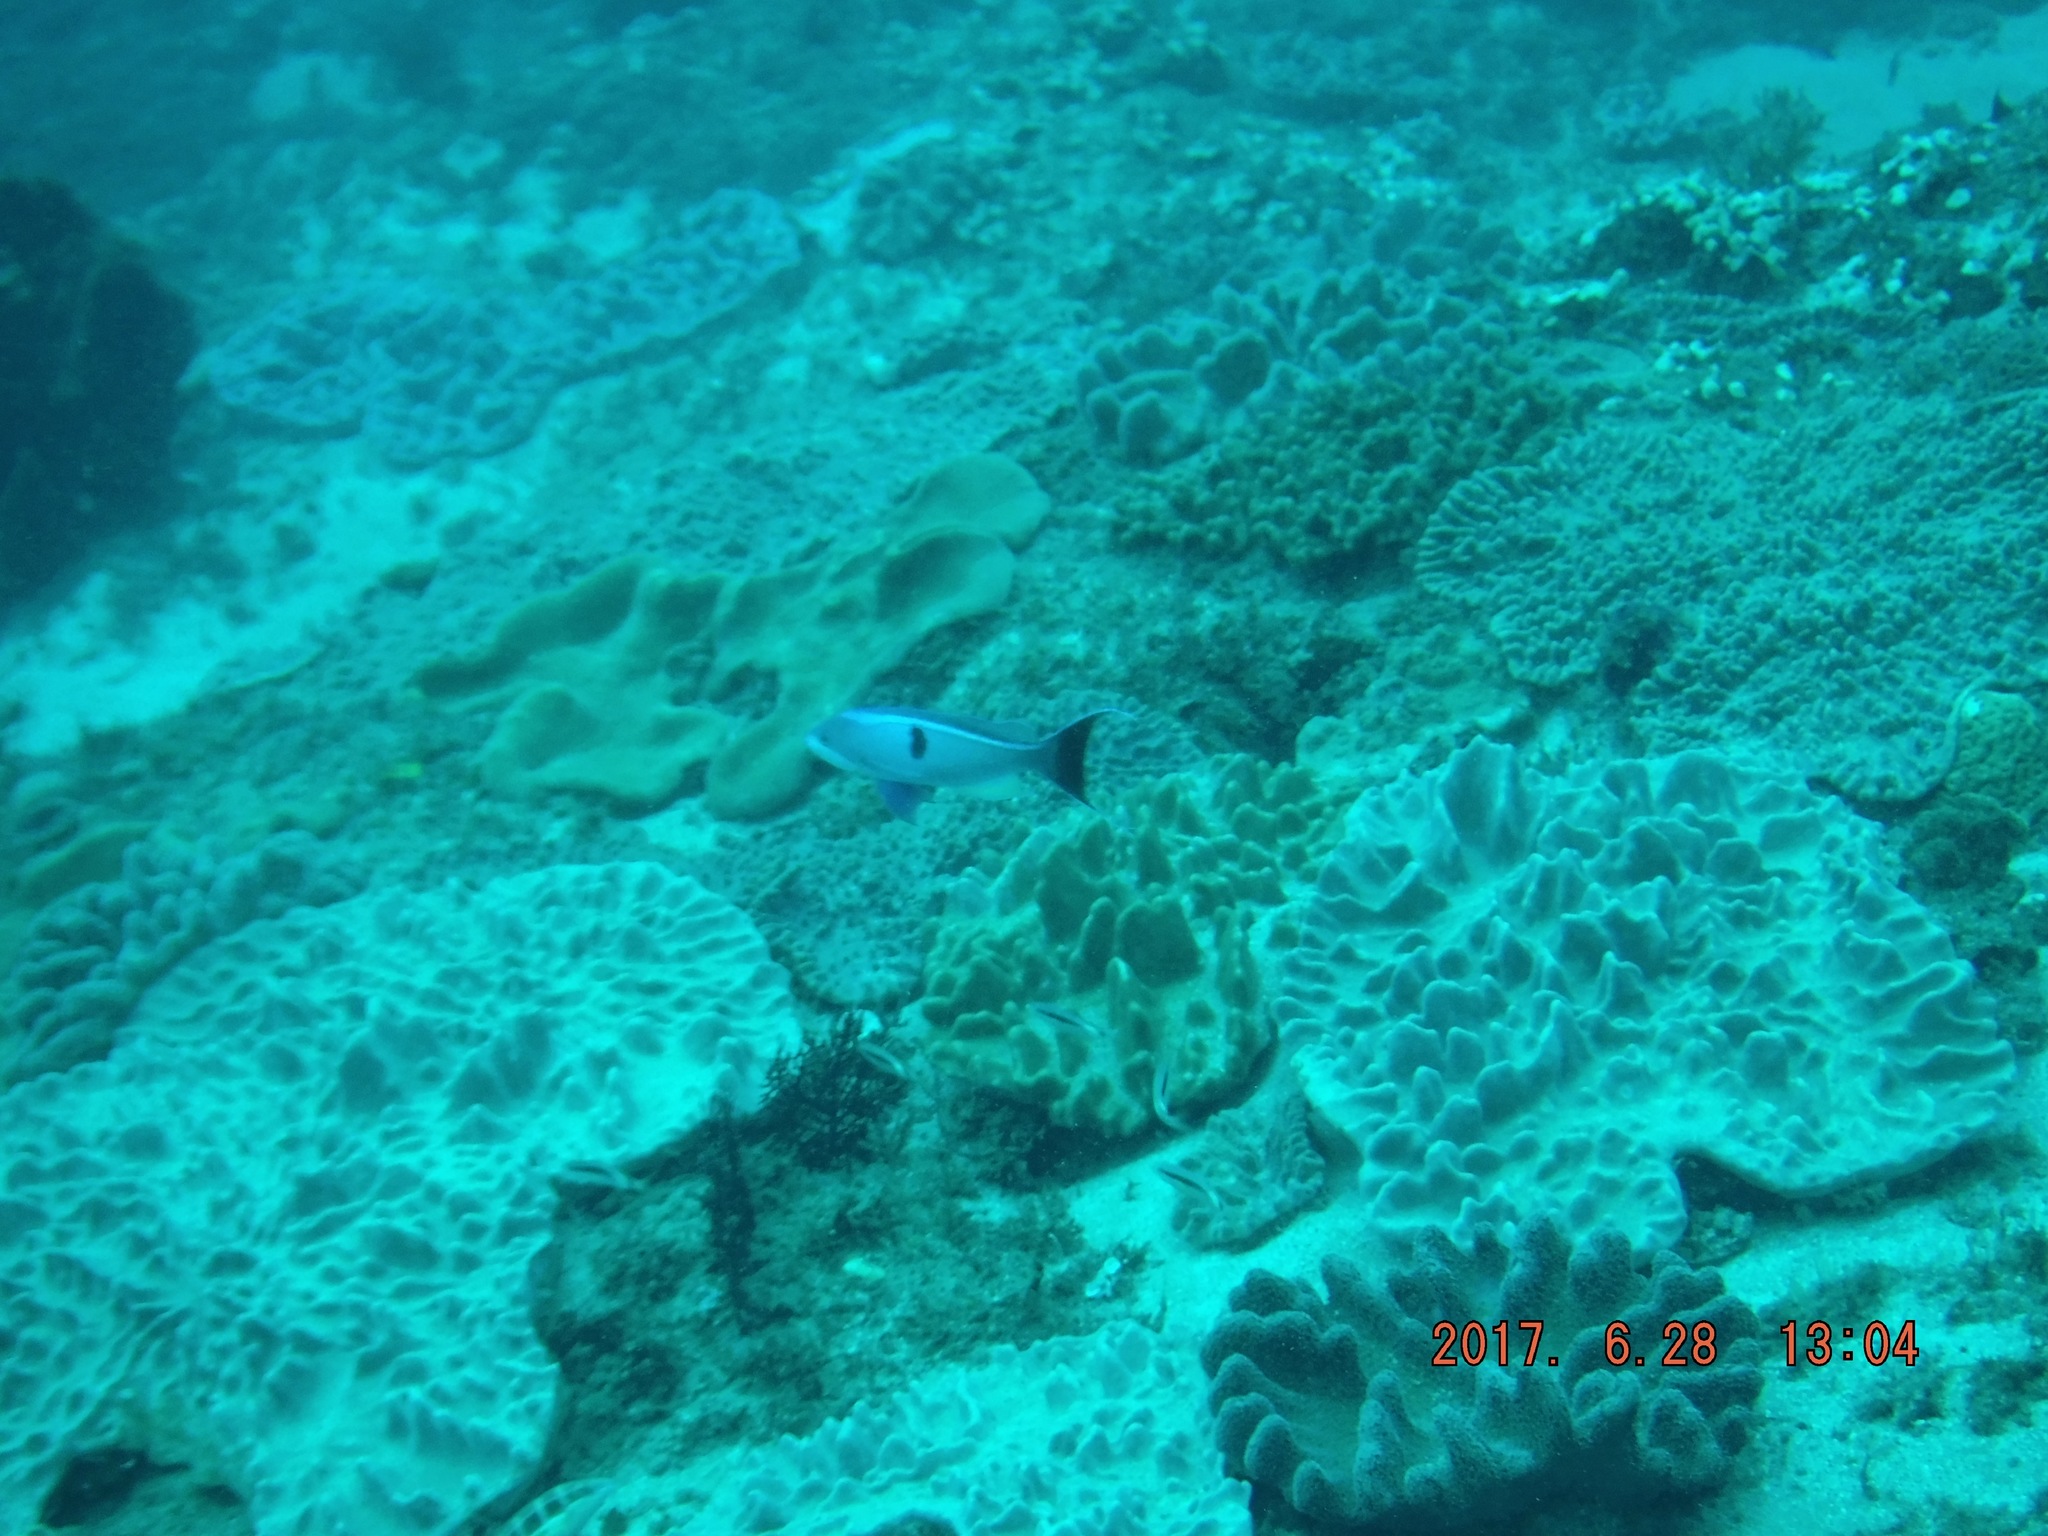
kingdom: Animalia
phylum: Chordata
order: Perciformes
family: Serranidae
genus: Pseudanthias
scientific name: Pseudanthias cooperi
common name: Red basslet
